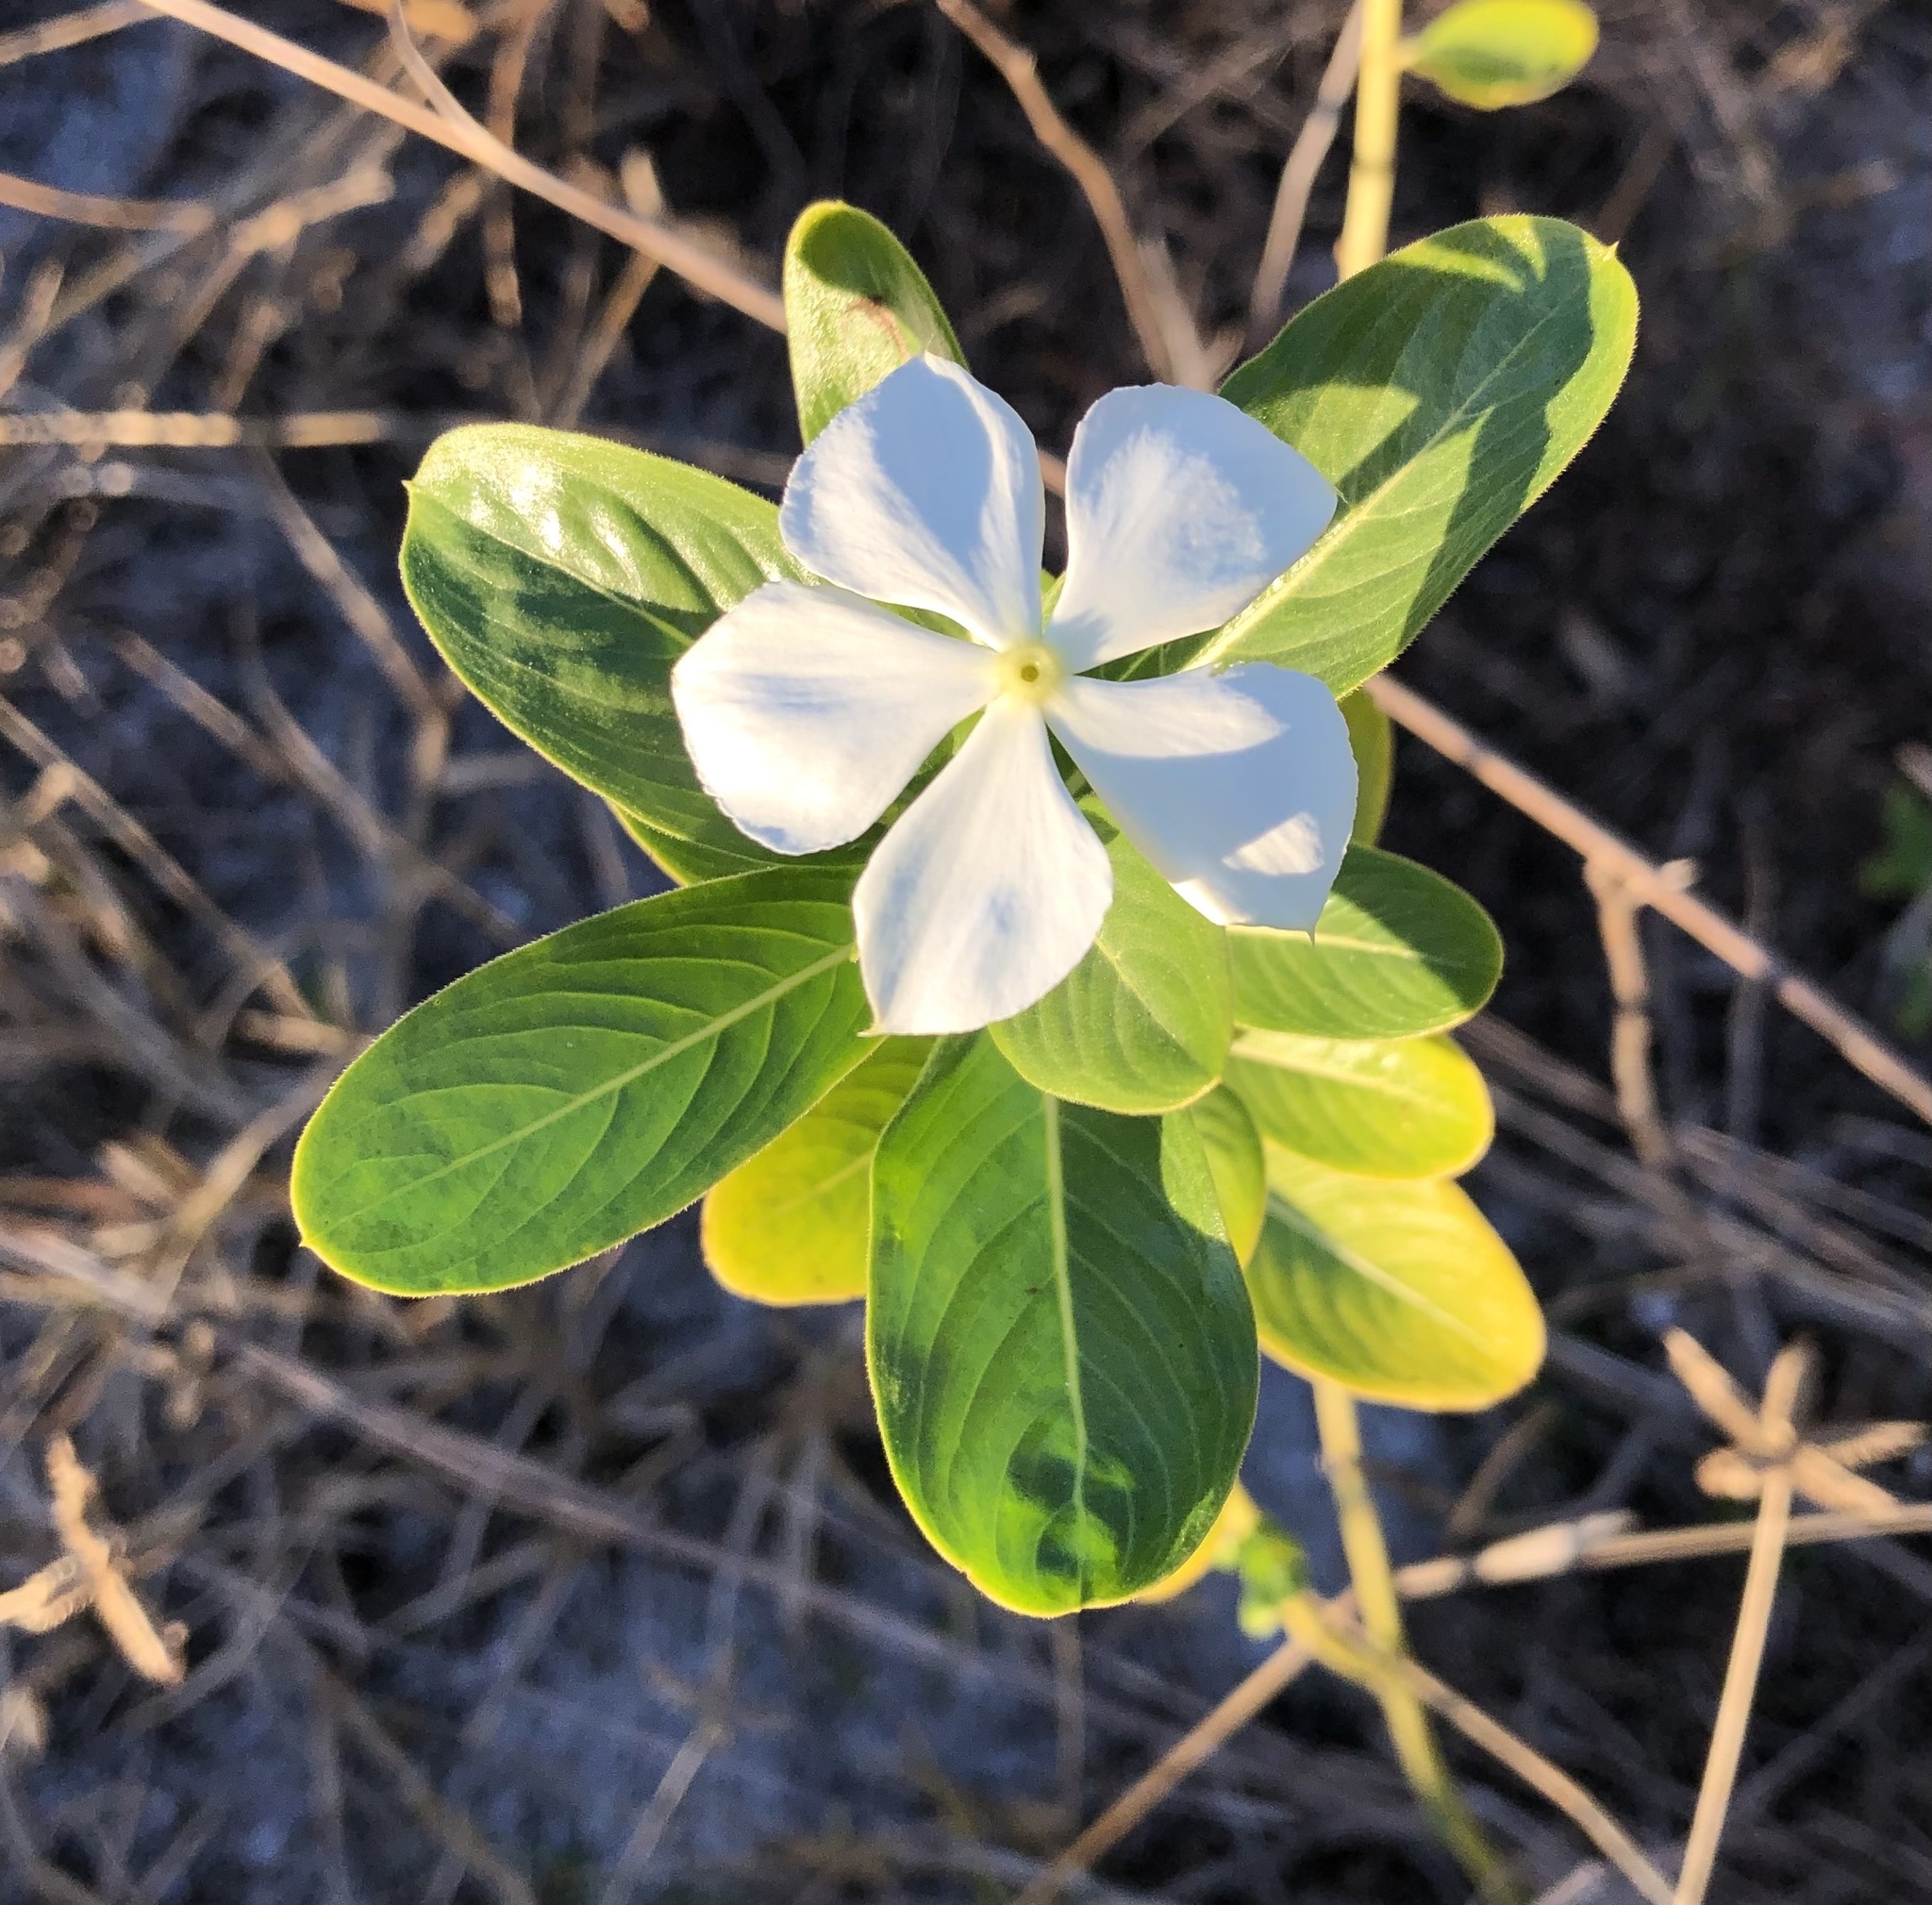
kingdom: Plantae
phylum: Tracheophyta
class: Magnoliopsida
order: Gentianales
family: Apocynaceae
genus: Catharanthus
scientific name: Catharanthus roseus
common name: Madagascar periwinkle
